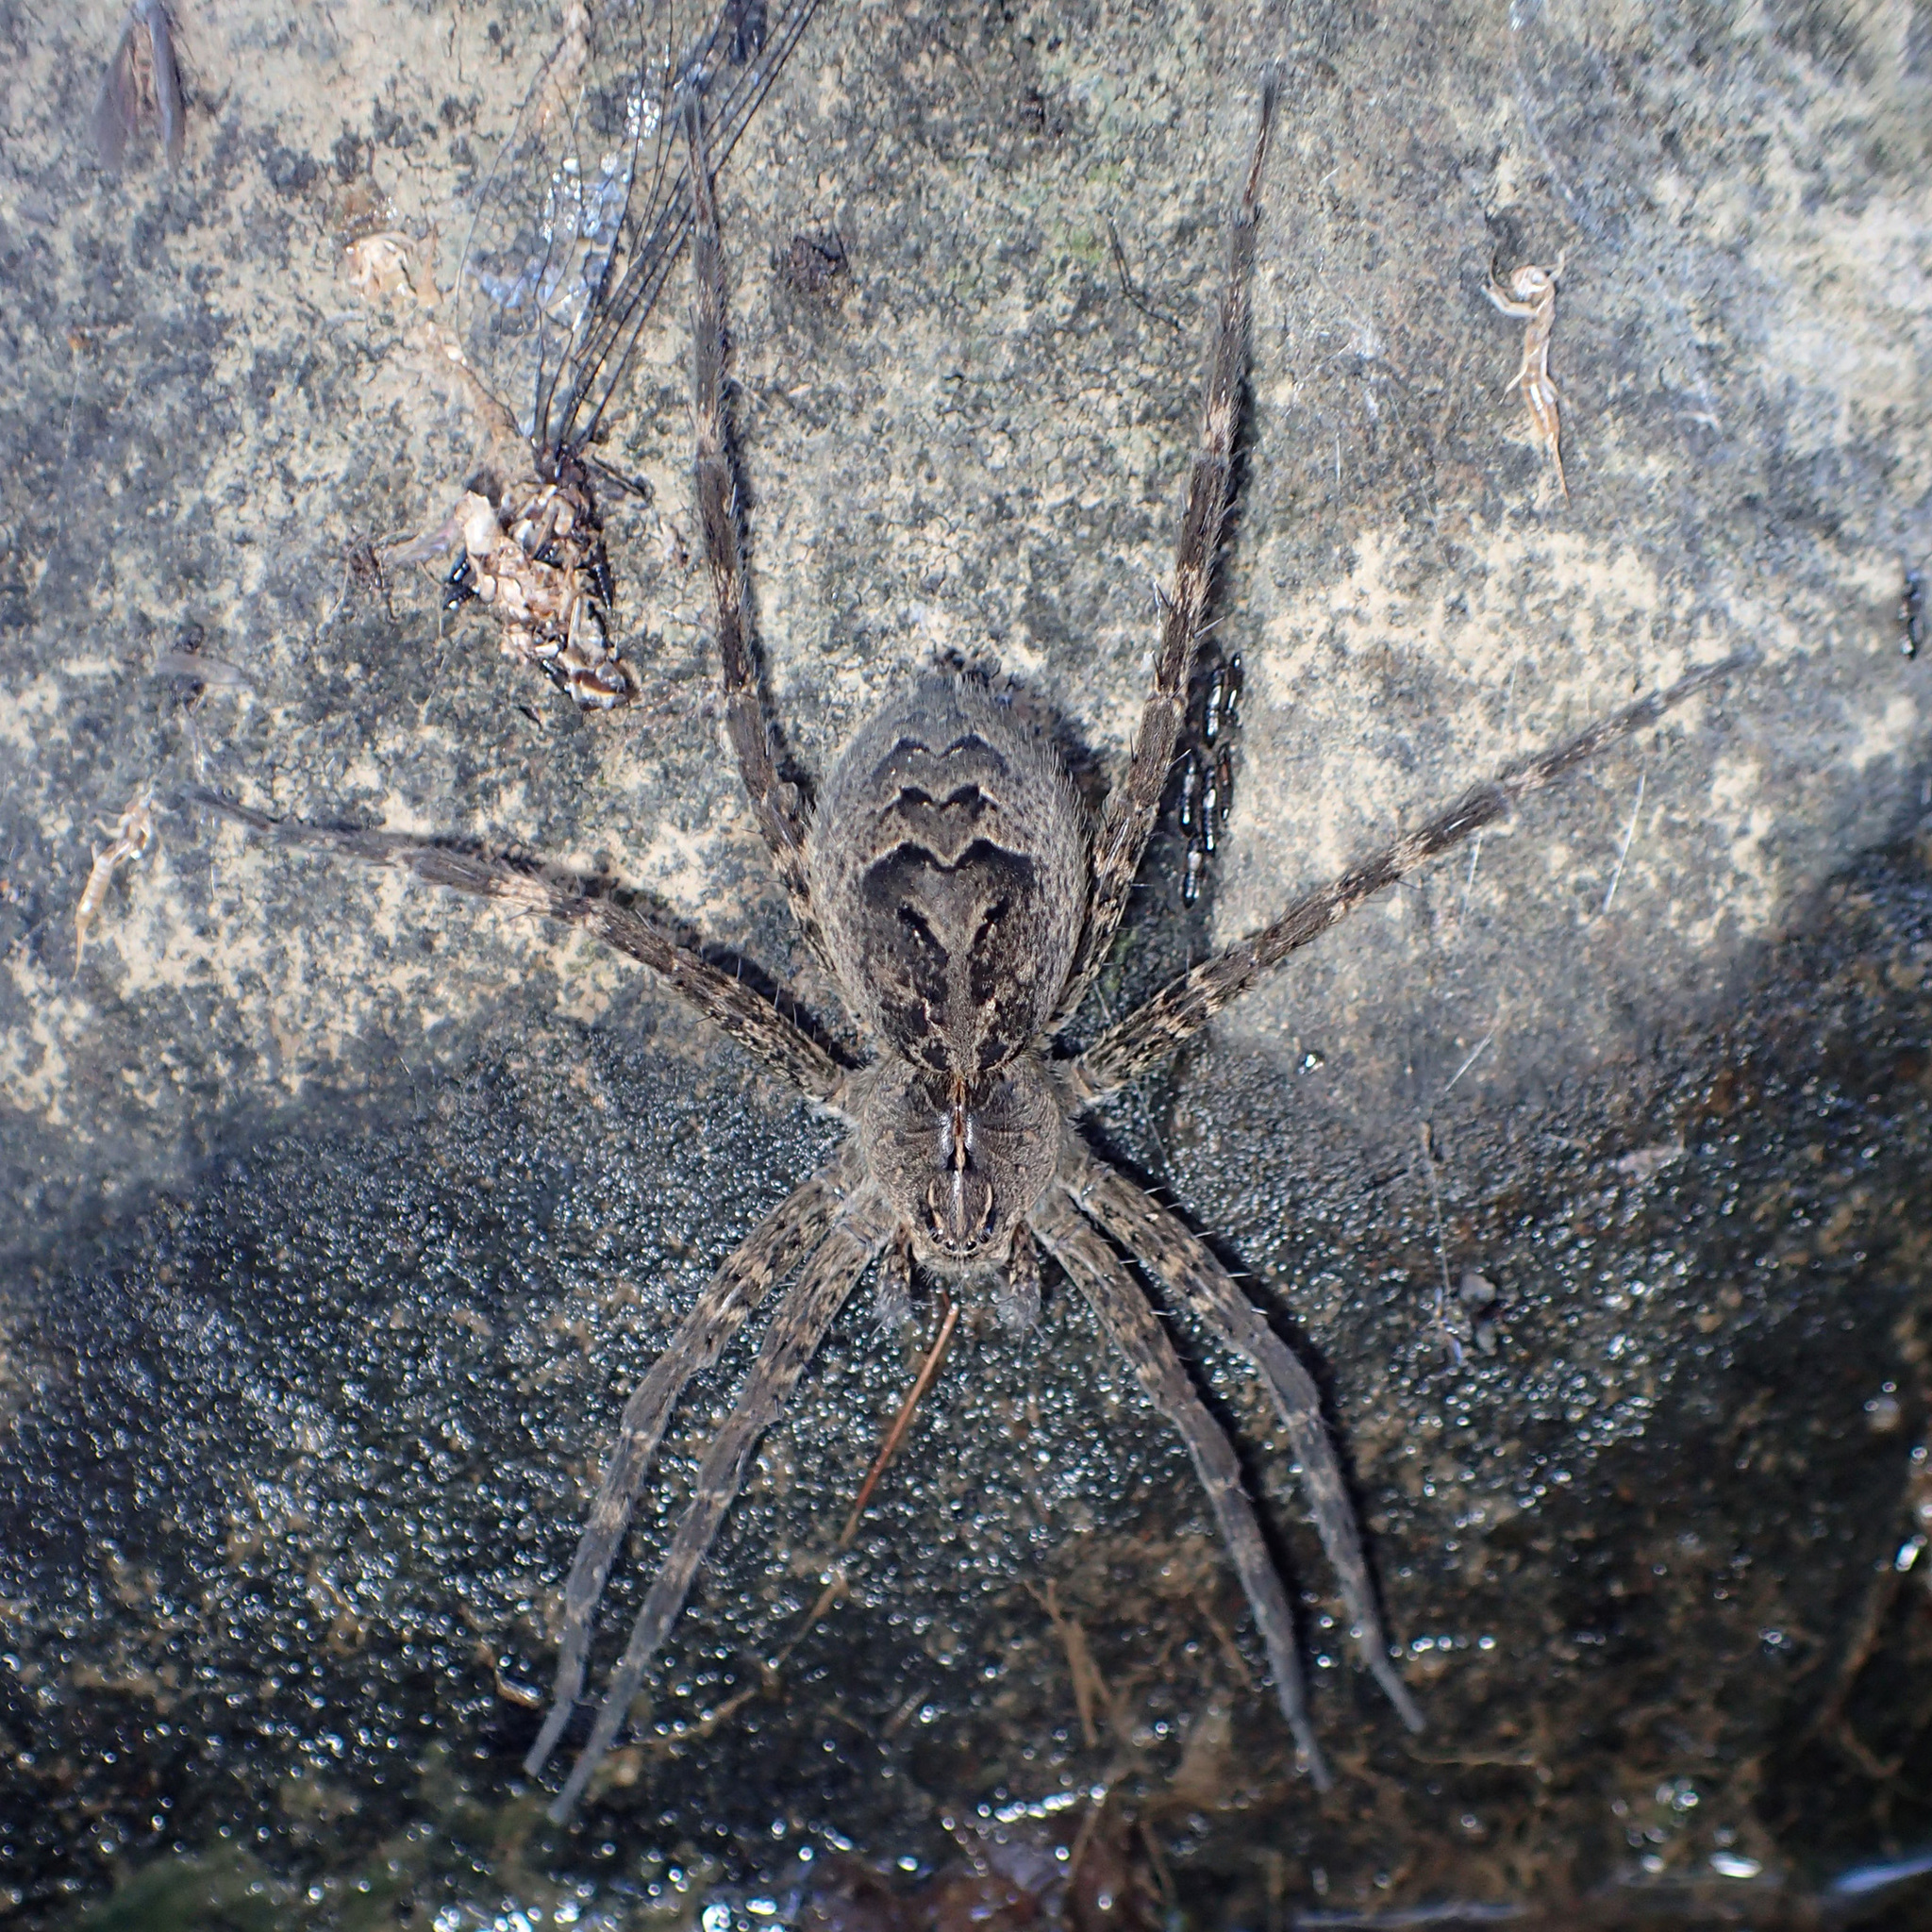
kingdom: Animalia
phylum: Arthropoda
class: Arachnida
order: Araneae
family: Pisauridae
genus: Dolomedes
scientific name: Dolomedes scriptus
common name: Striped fishing spider
